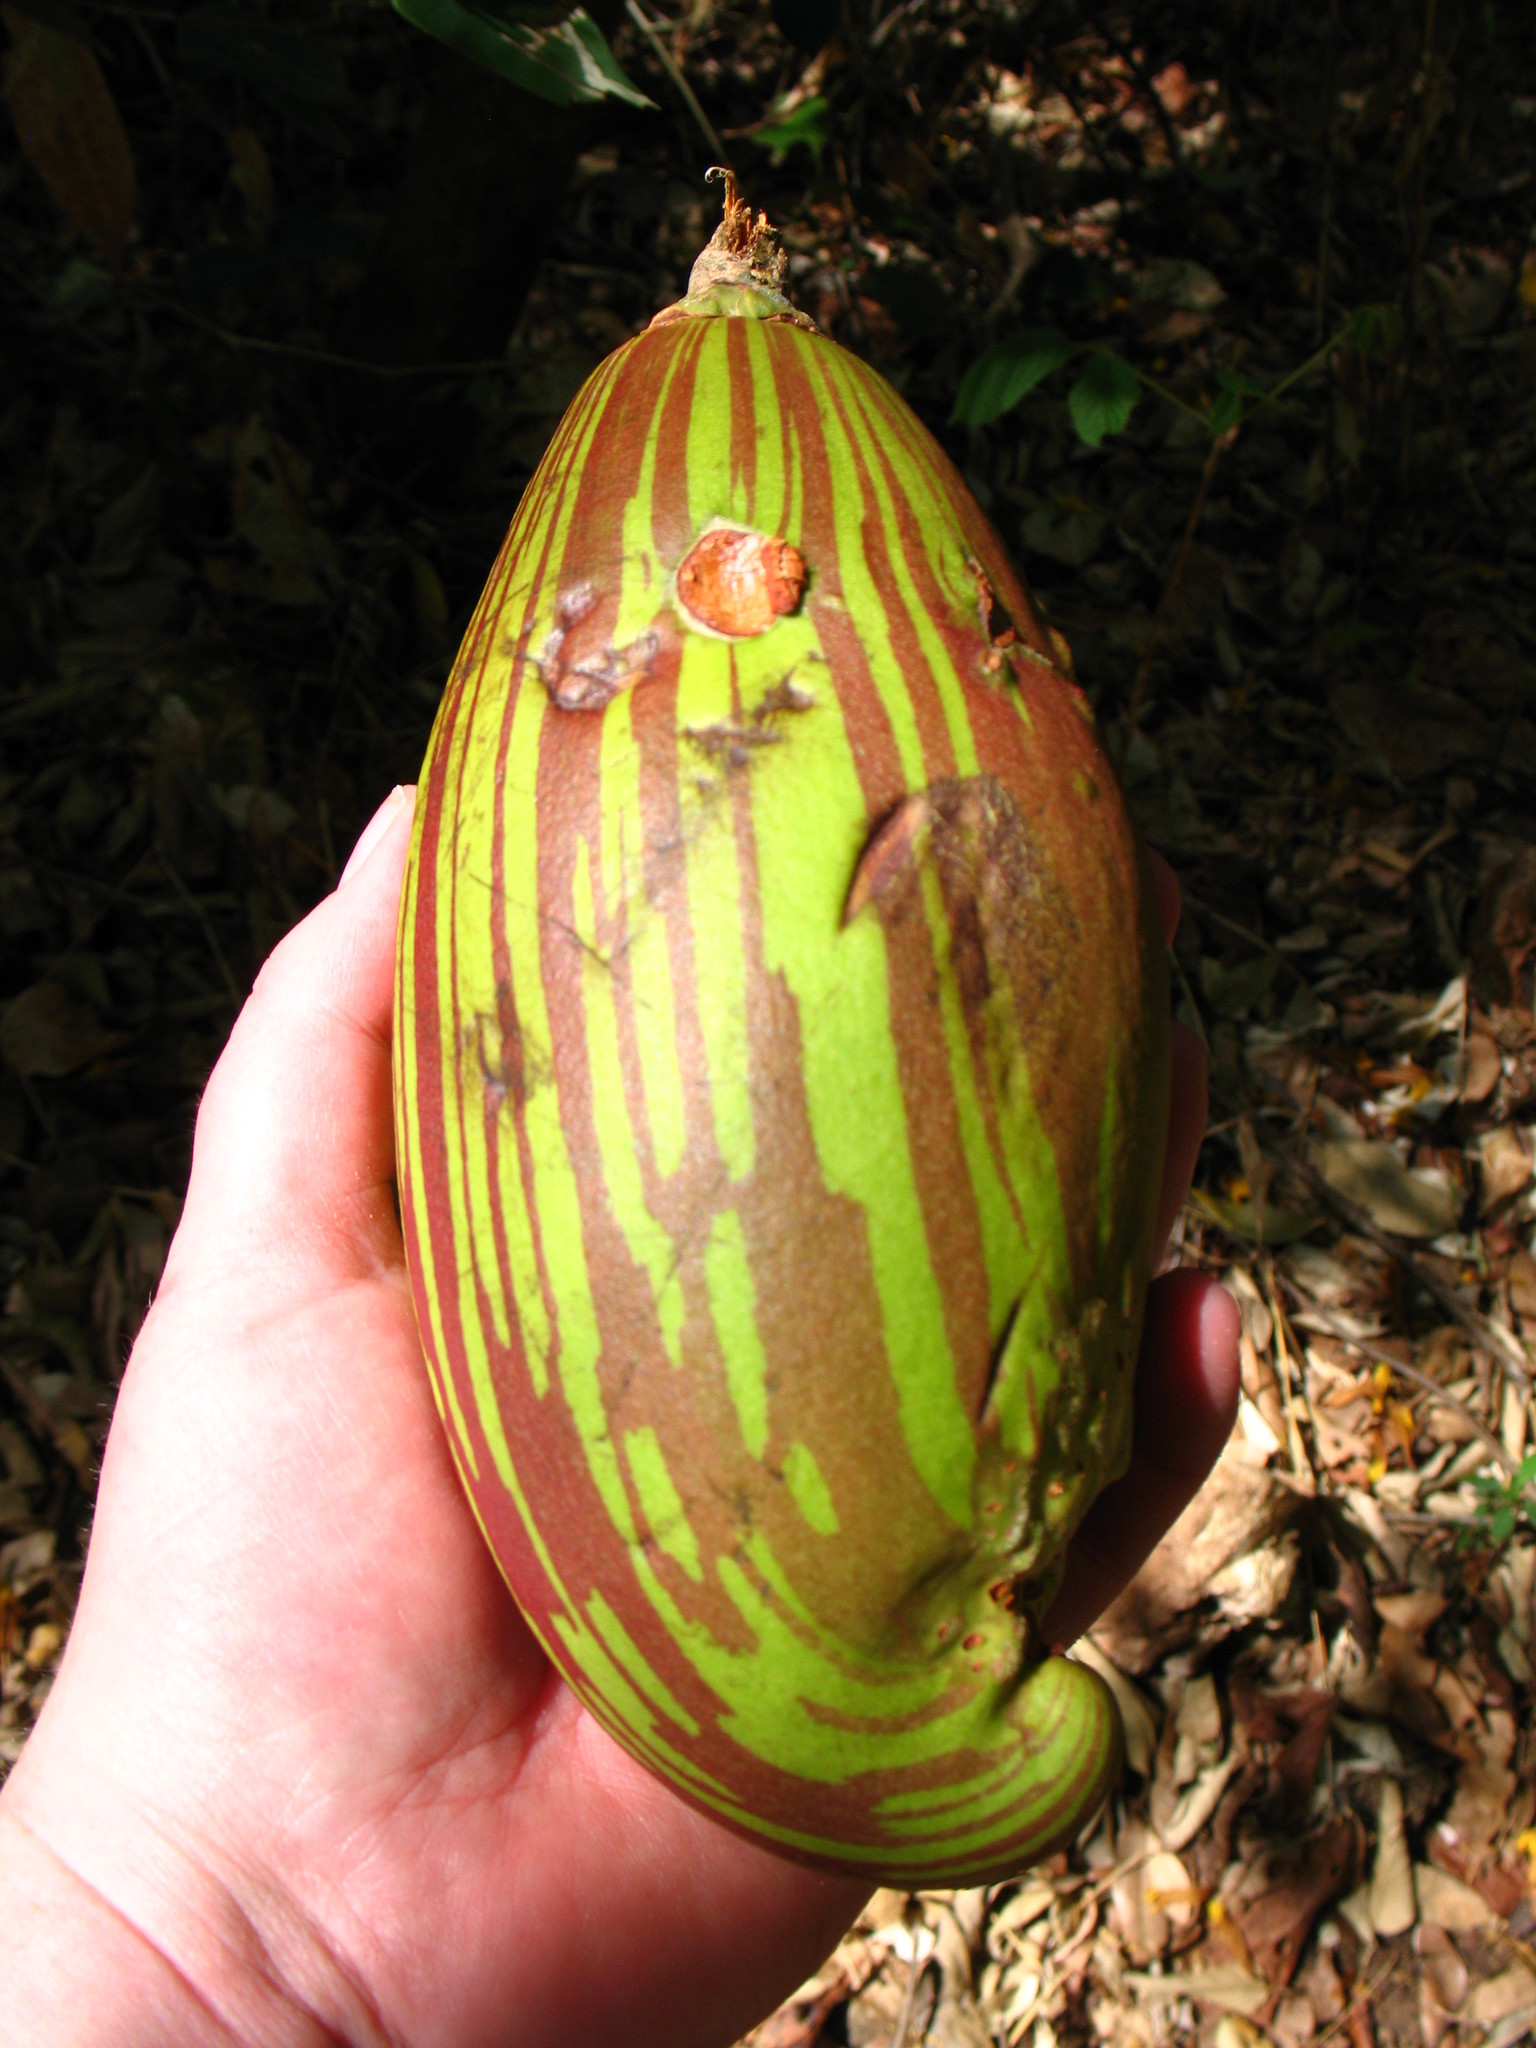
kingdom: Plantae
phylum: Tracheophyta
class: Magnoliopsida
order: Malvales
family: Malvaceae
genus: Pseudobombax
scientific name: Pseudobombax septenatum
